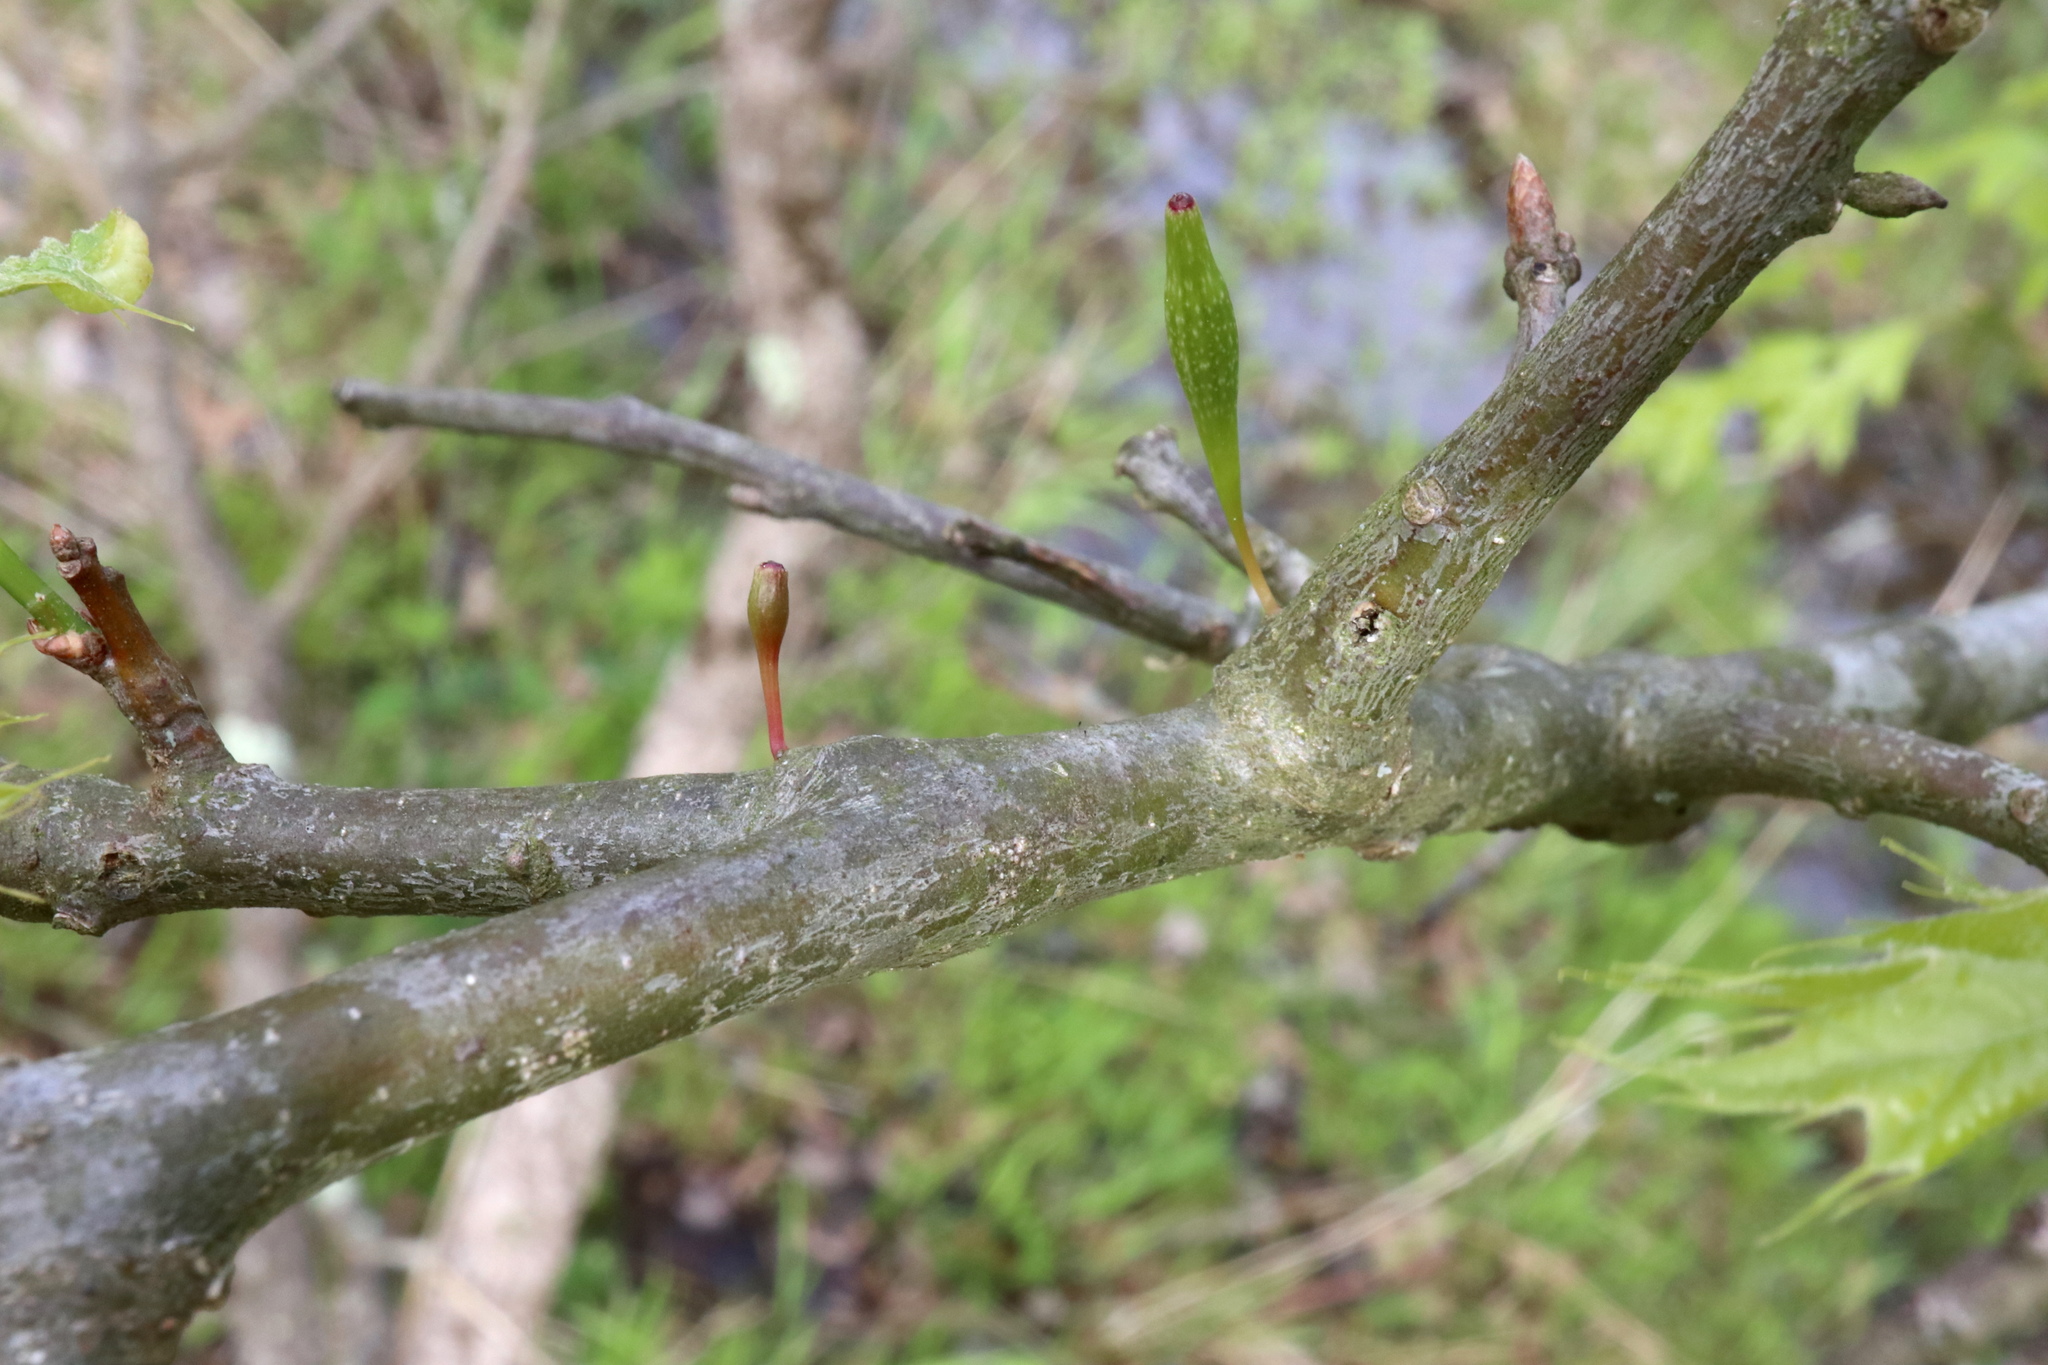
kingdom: Animalia
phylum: Arthropoda
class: Insecta
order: Hymenoptera
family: Cynipidae
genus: Callirhytis
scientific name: Callirhytis
